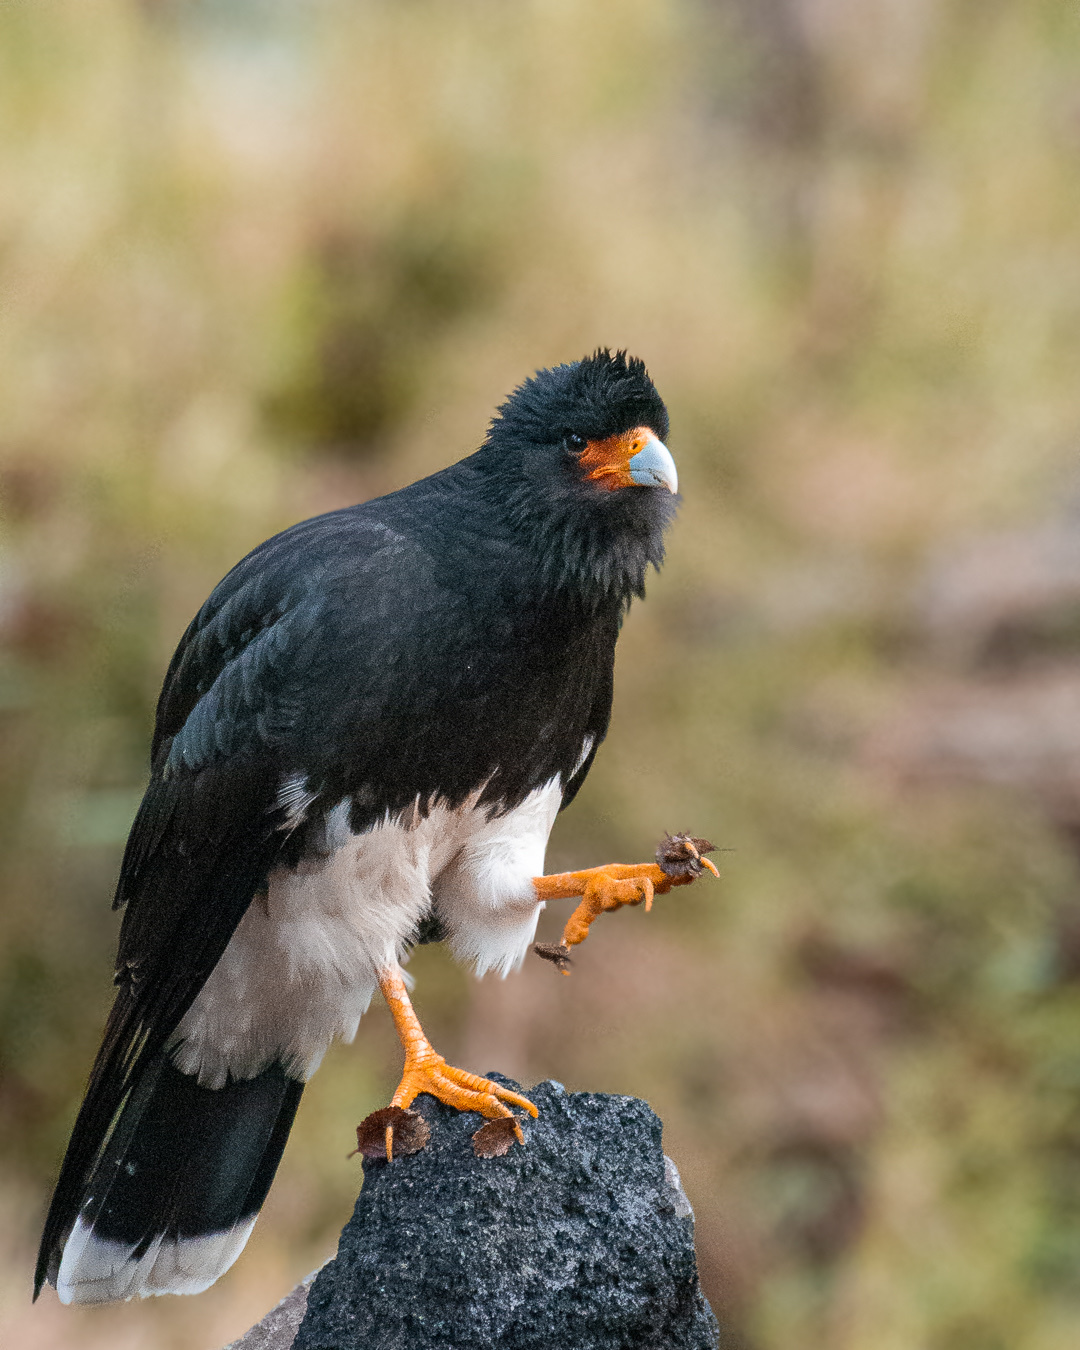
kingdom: Animalia
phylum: Chordata
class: Aves
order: Falconiformes
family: Falconidae
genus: Daptrius
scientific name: Daptrius
